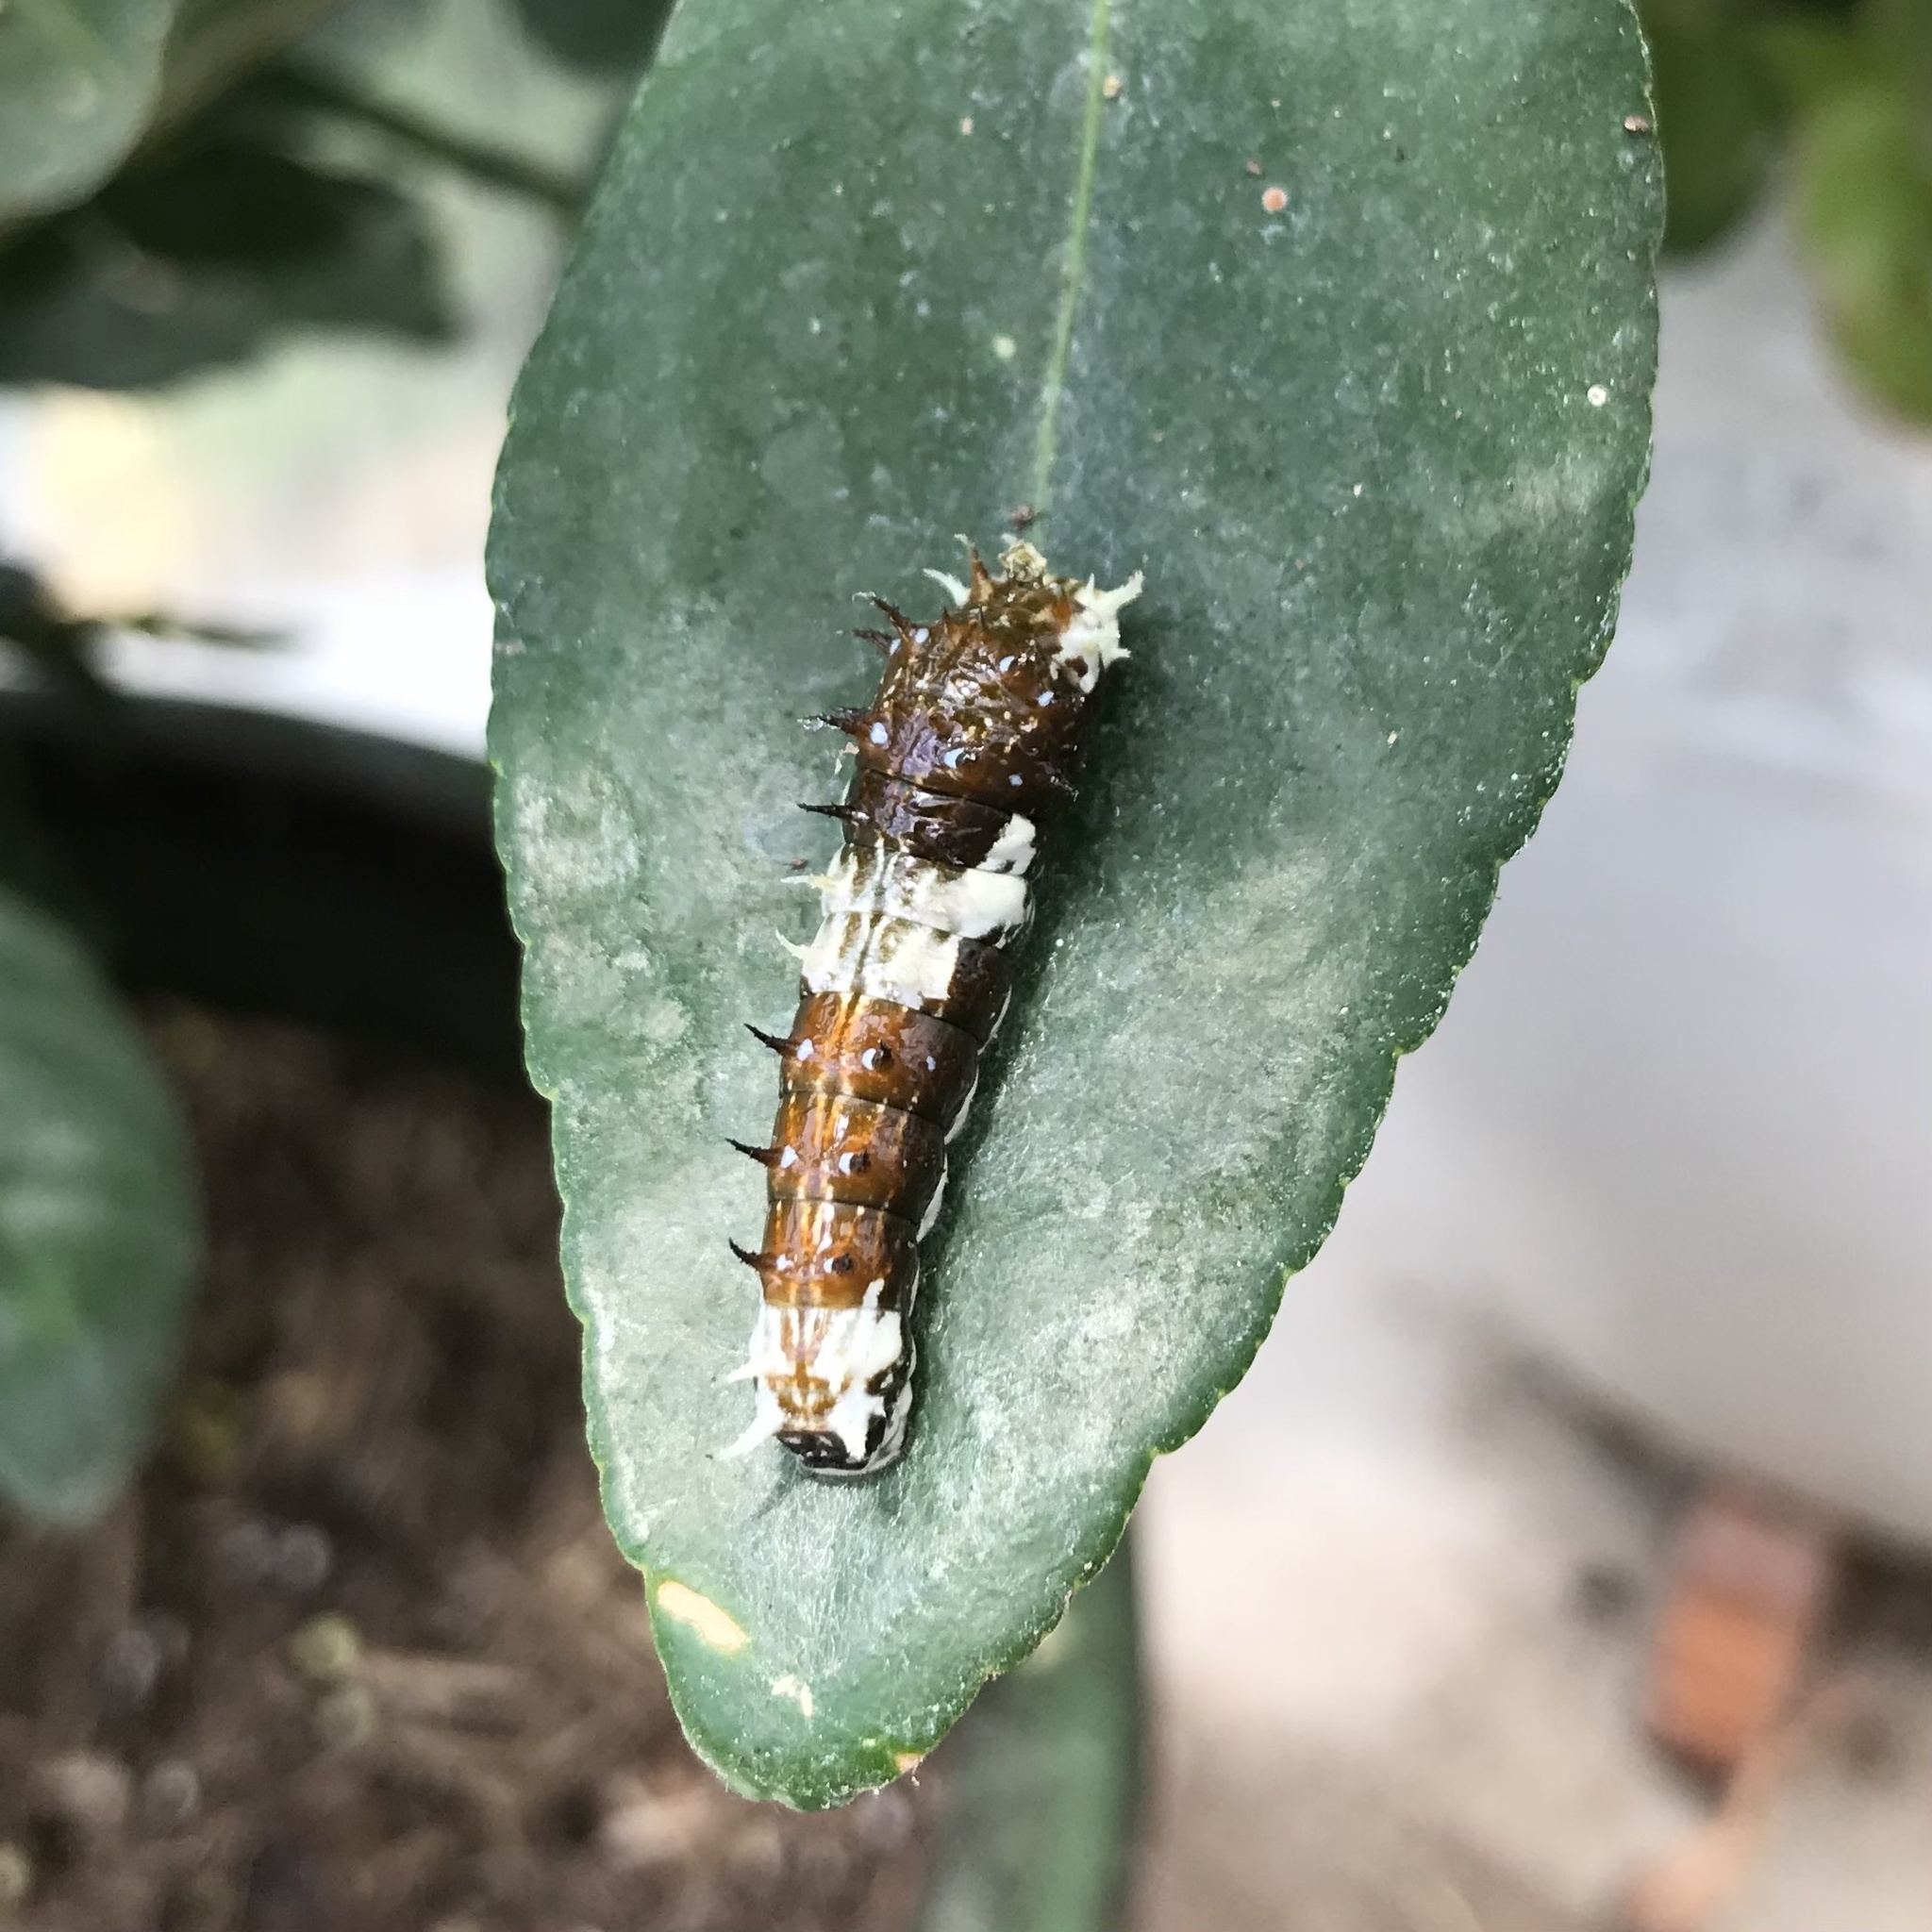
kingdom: Animalia
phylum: Arthropoda
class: Insecta
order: Lepidoptera
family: Papilionidae
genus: Papilio
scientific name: Papilio aegeus
